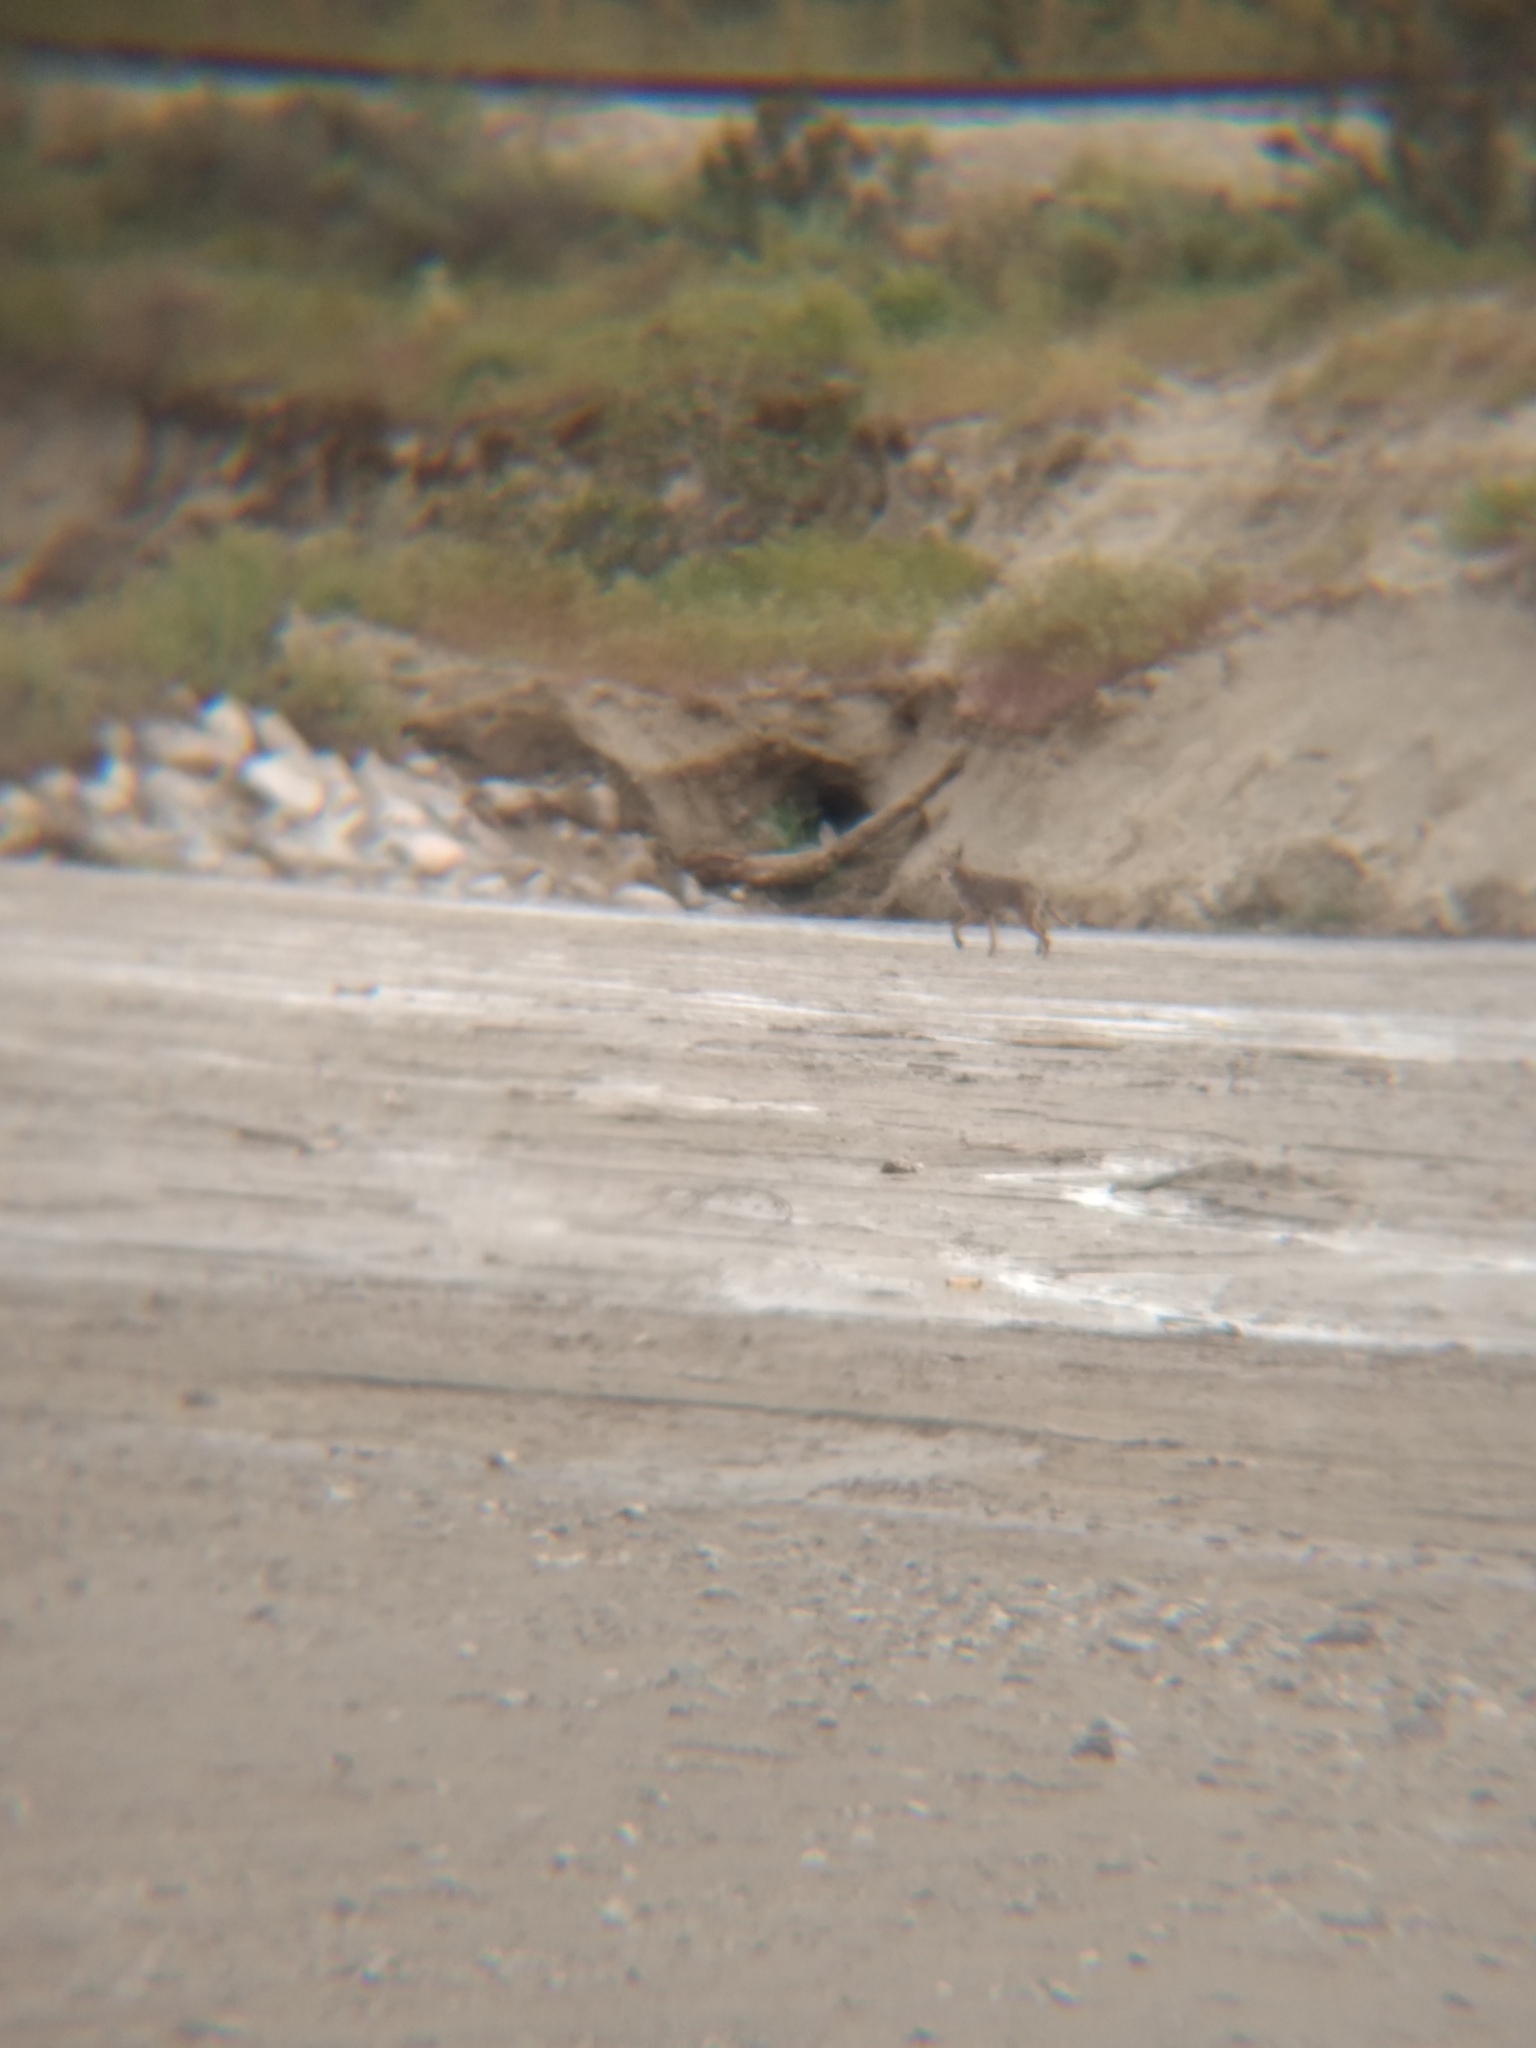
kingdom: Animalia
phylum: Chordata
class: Mammalia
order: Carnivora
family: Canidae
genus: Canis
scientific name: Canis latrans
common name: Coyote
